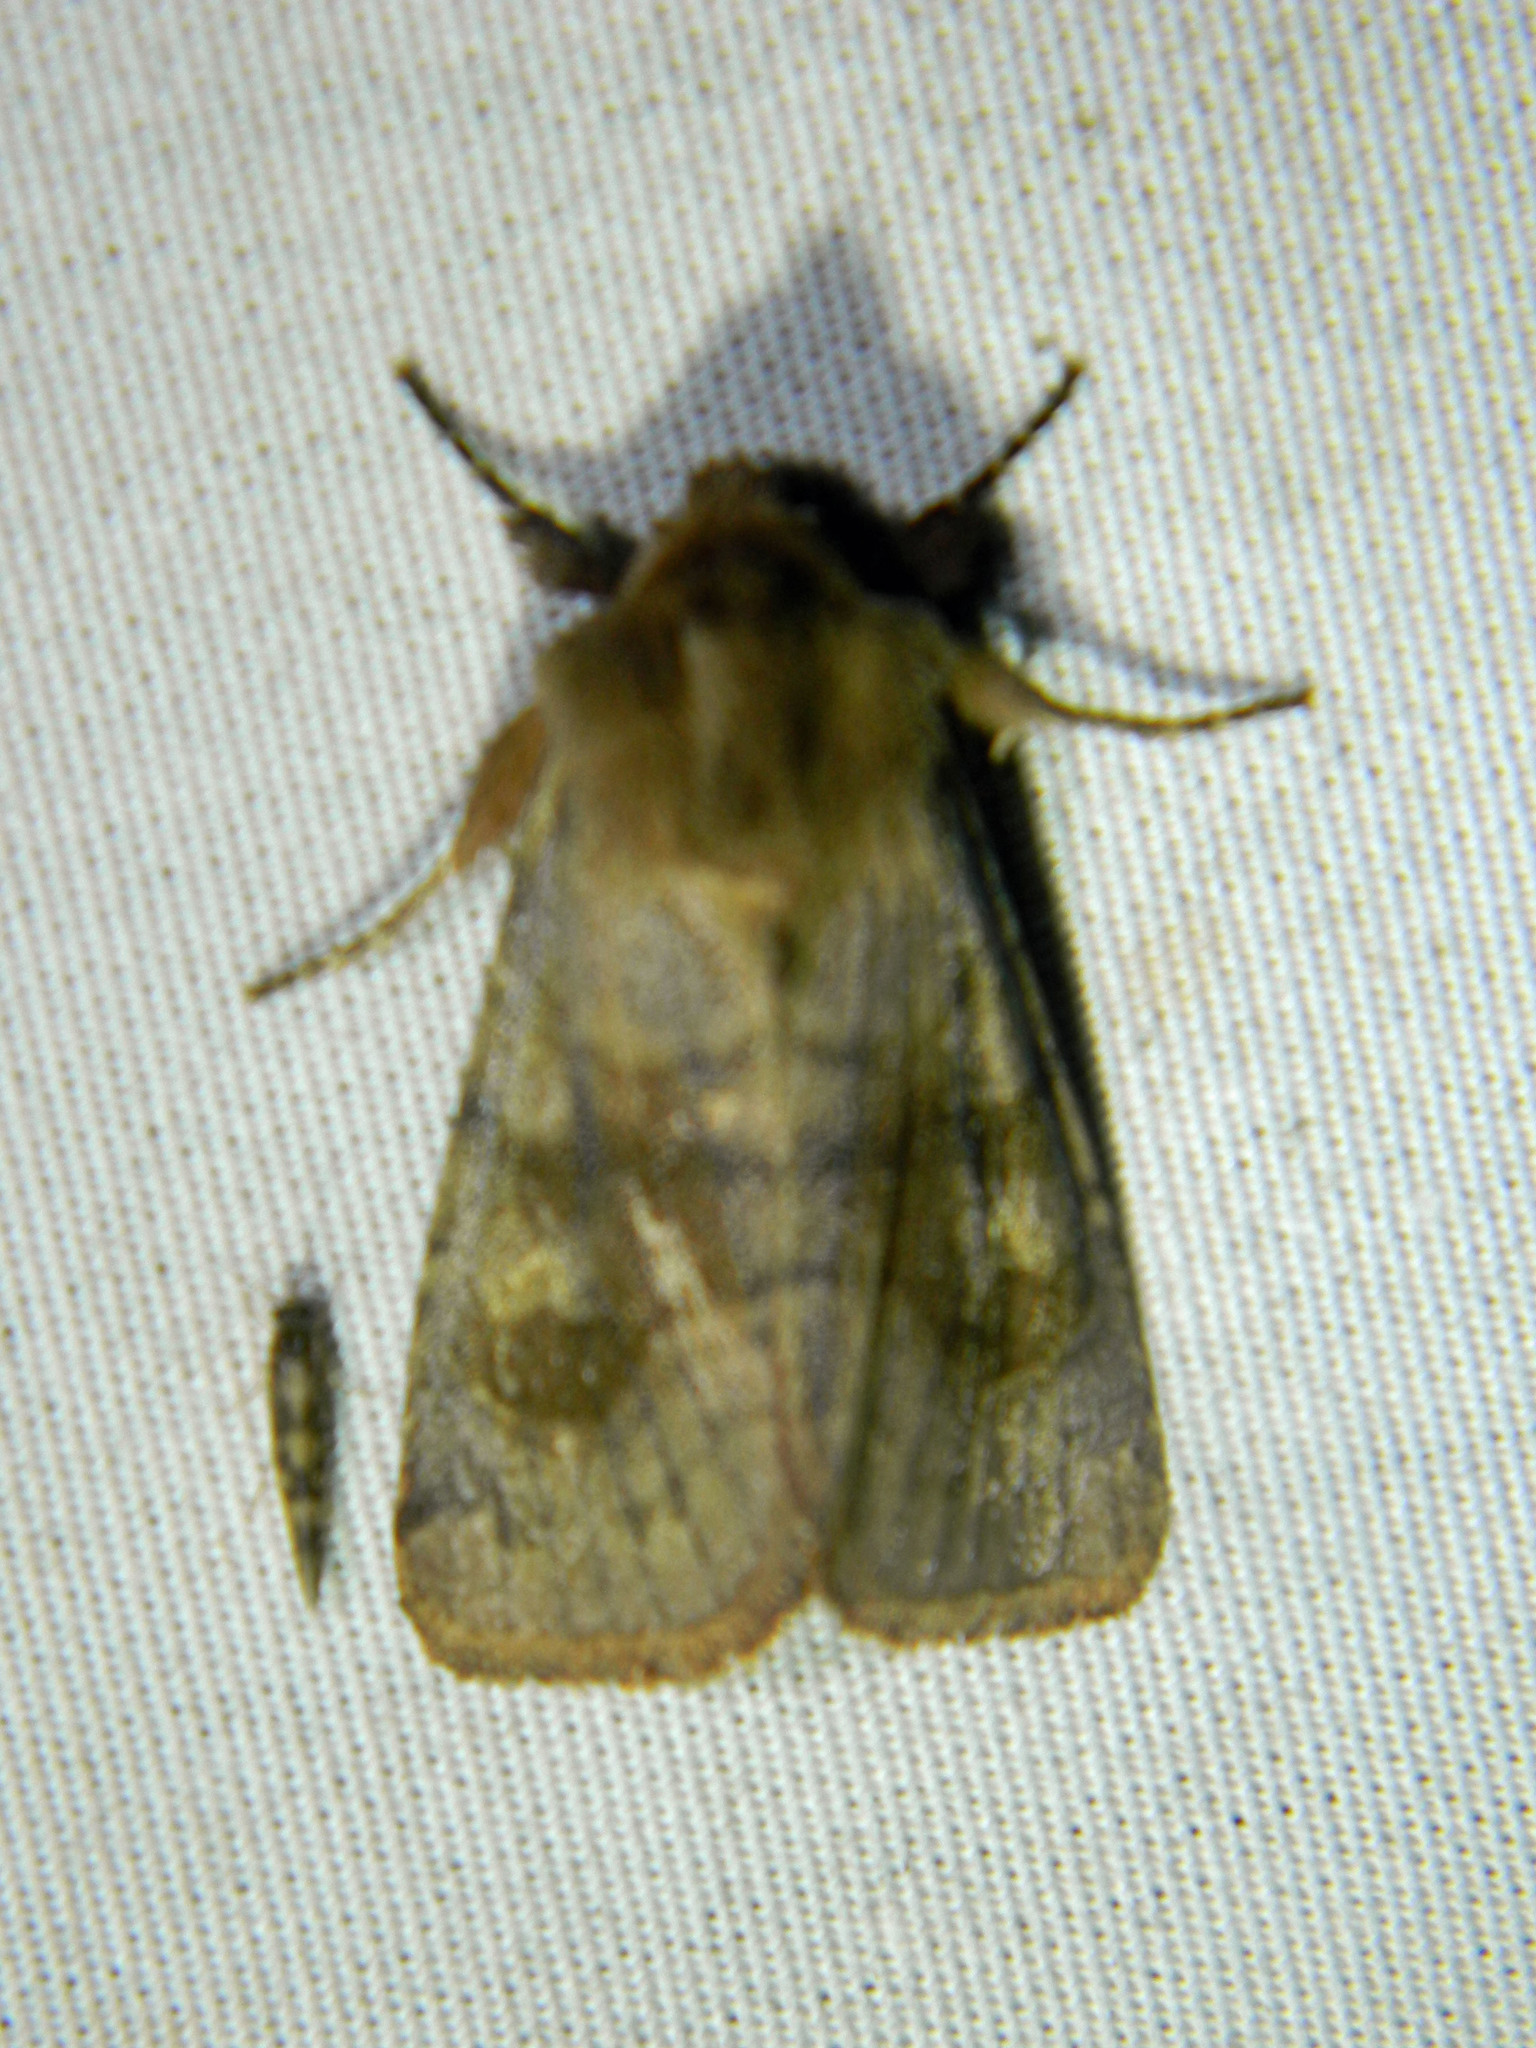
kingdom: Animalia
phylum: Arthropoda
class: Insecta
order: Lepidoptera
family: Noctuidae
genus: Nephelodes
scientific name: Nephelodes minians
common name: Bronzed cutworm
